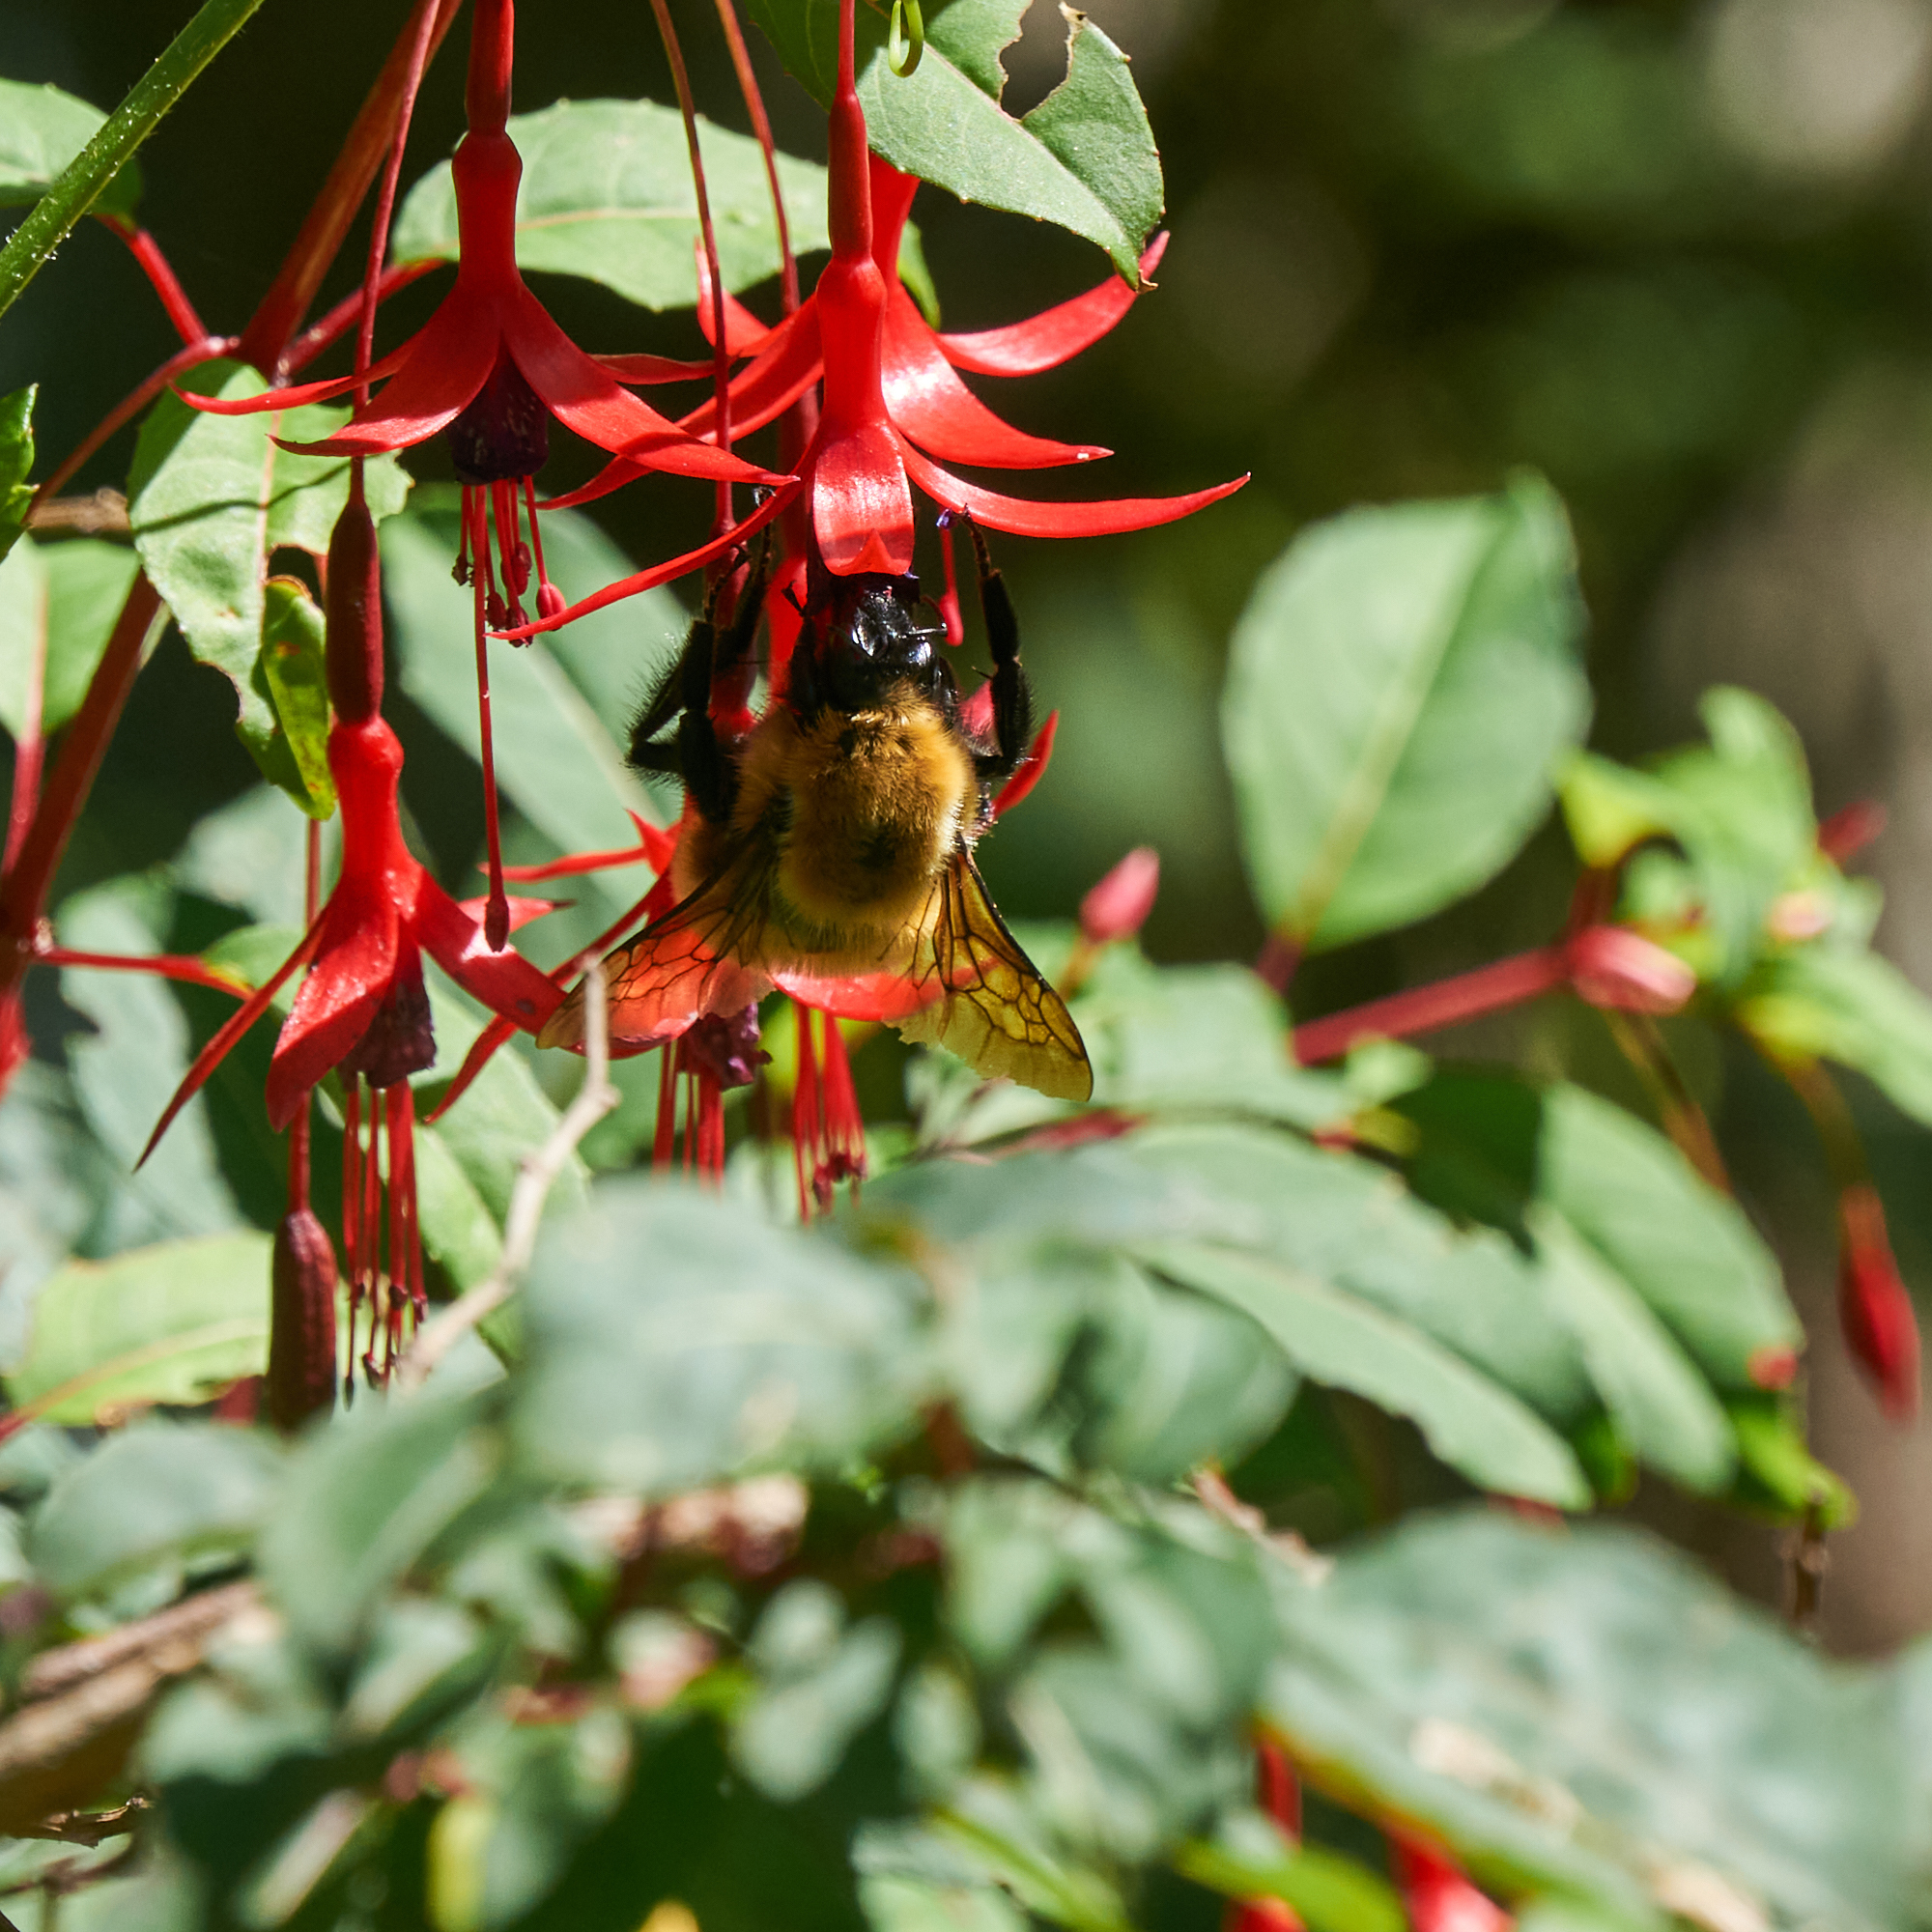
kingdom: Animalia
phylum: Arthropoda
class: Insecta
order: Hymenoptera
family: Apidae
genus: Bombus
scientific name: Bombus dahlbomii
